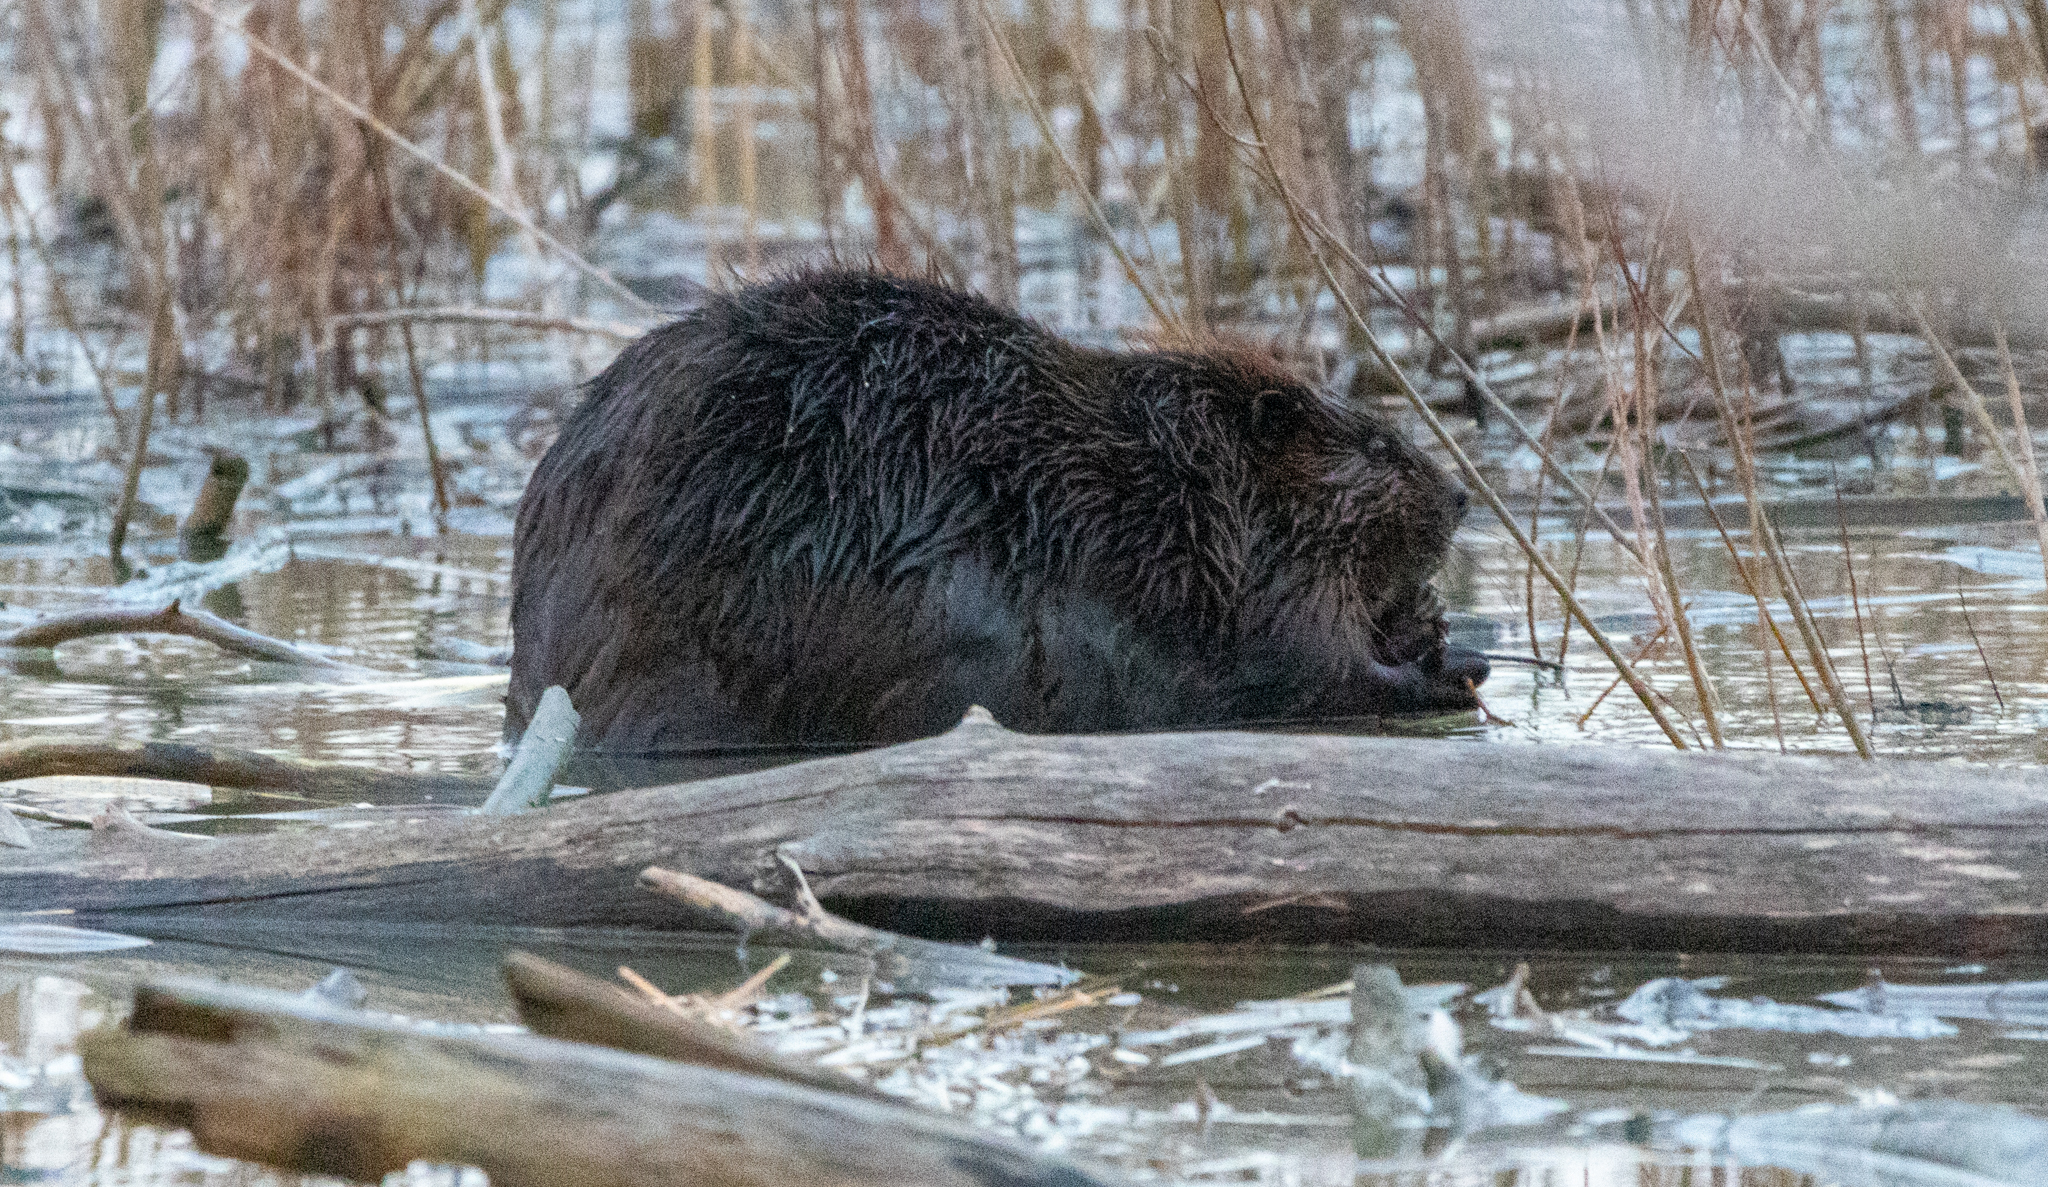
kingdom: Animalia
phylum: Chordata
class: Mammalia
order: Rodentia
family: Castoridae
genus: Castor
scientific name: Castor canadensis
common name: American beaver
